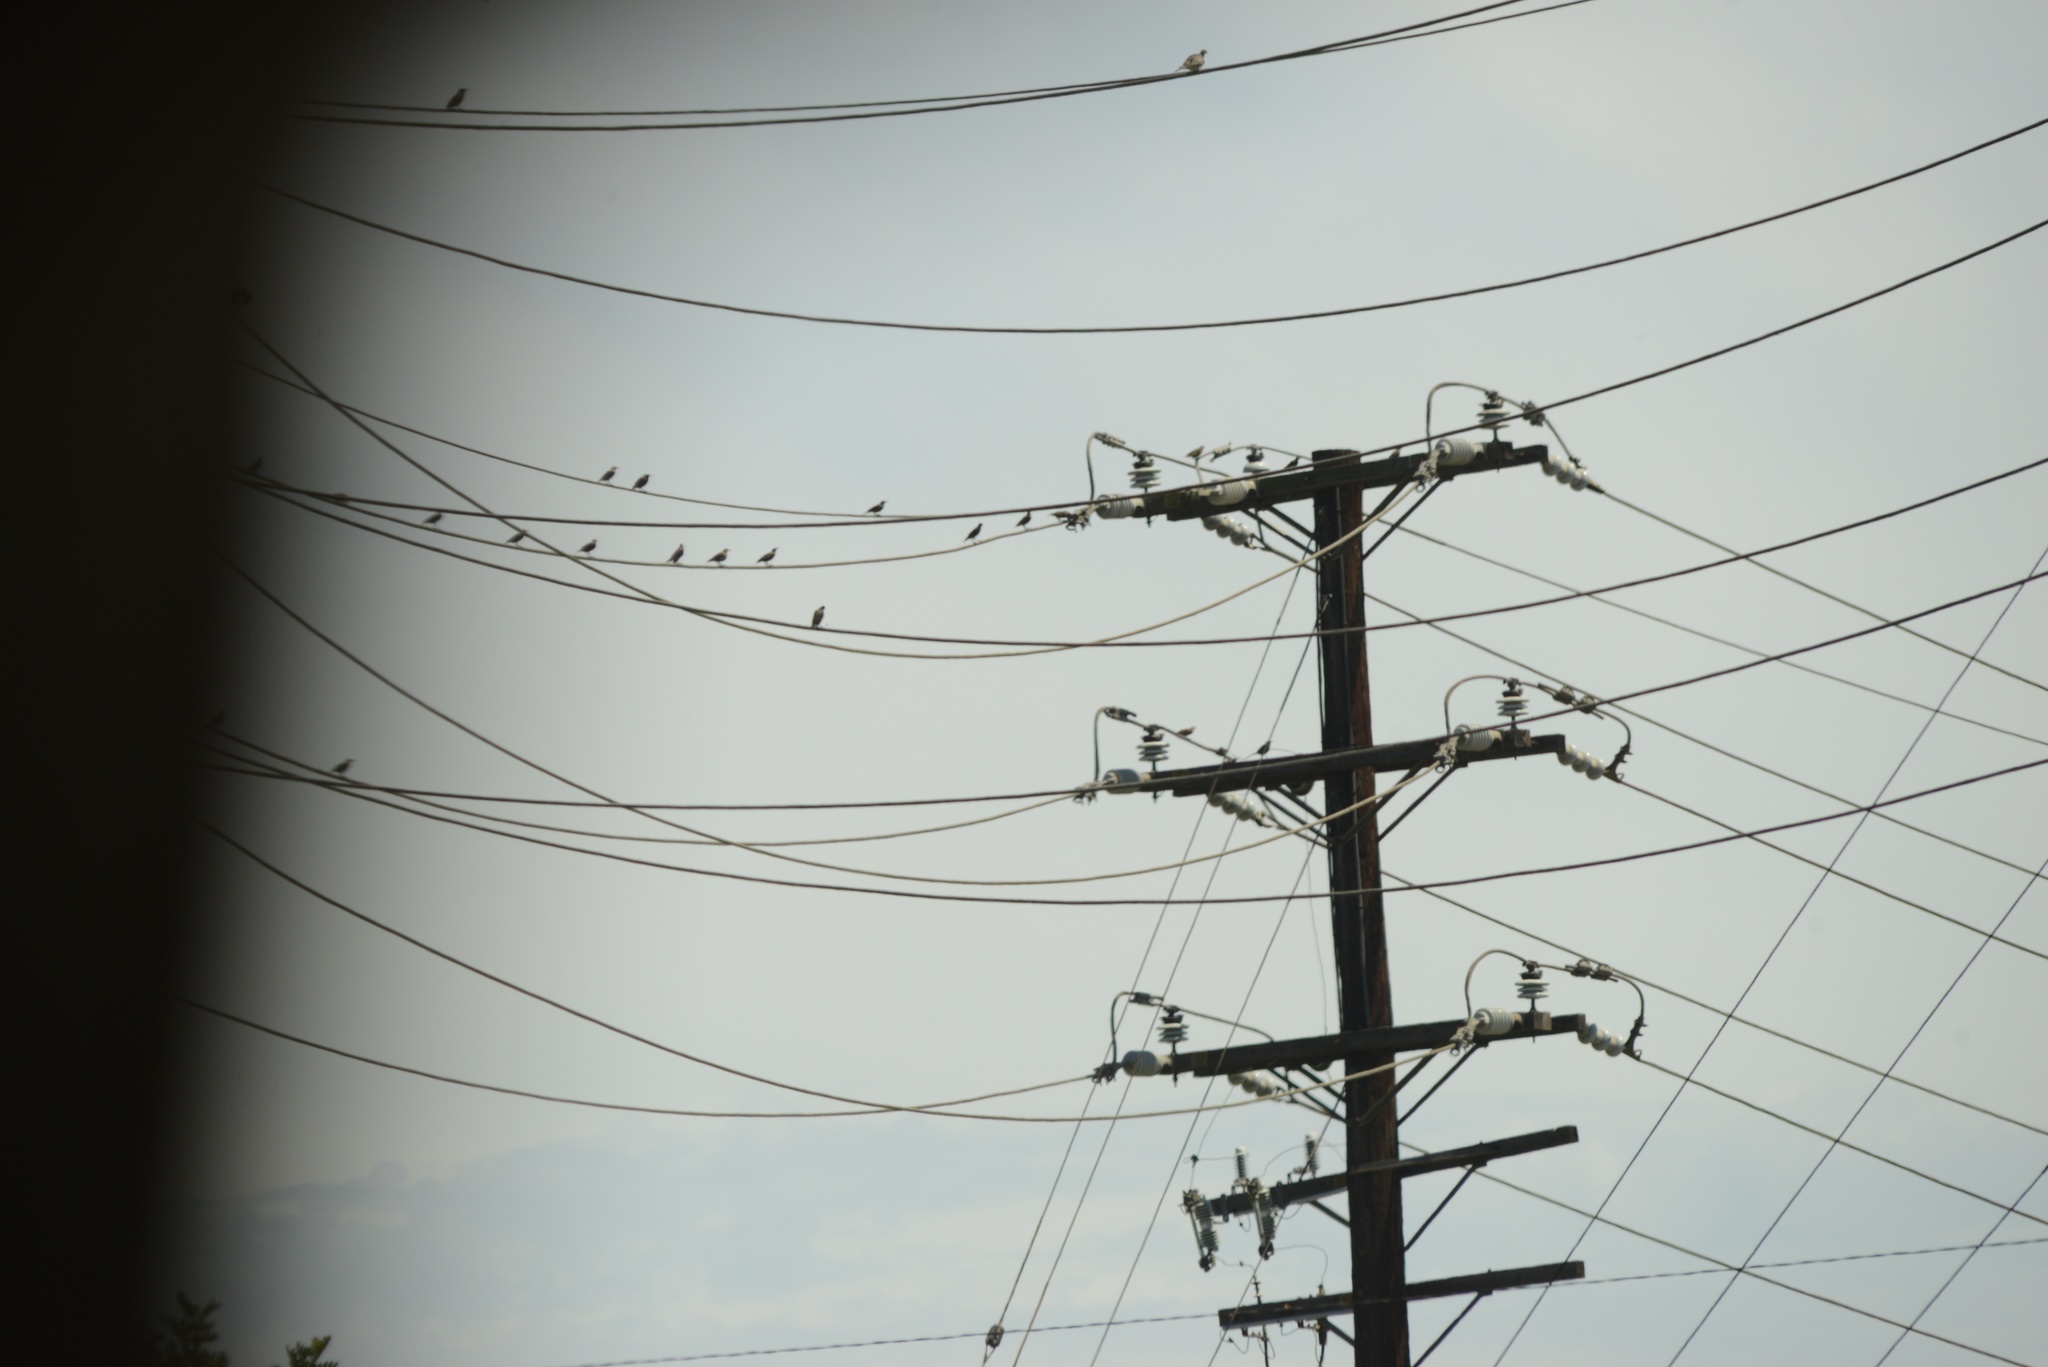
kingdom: Animalia
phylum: Chordata
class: Aves
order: Passeriformes
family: Sturnidae
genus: Sturnus
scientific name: Sturnus vulgaris
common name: Common starling
